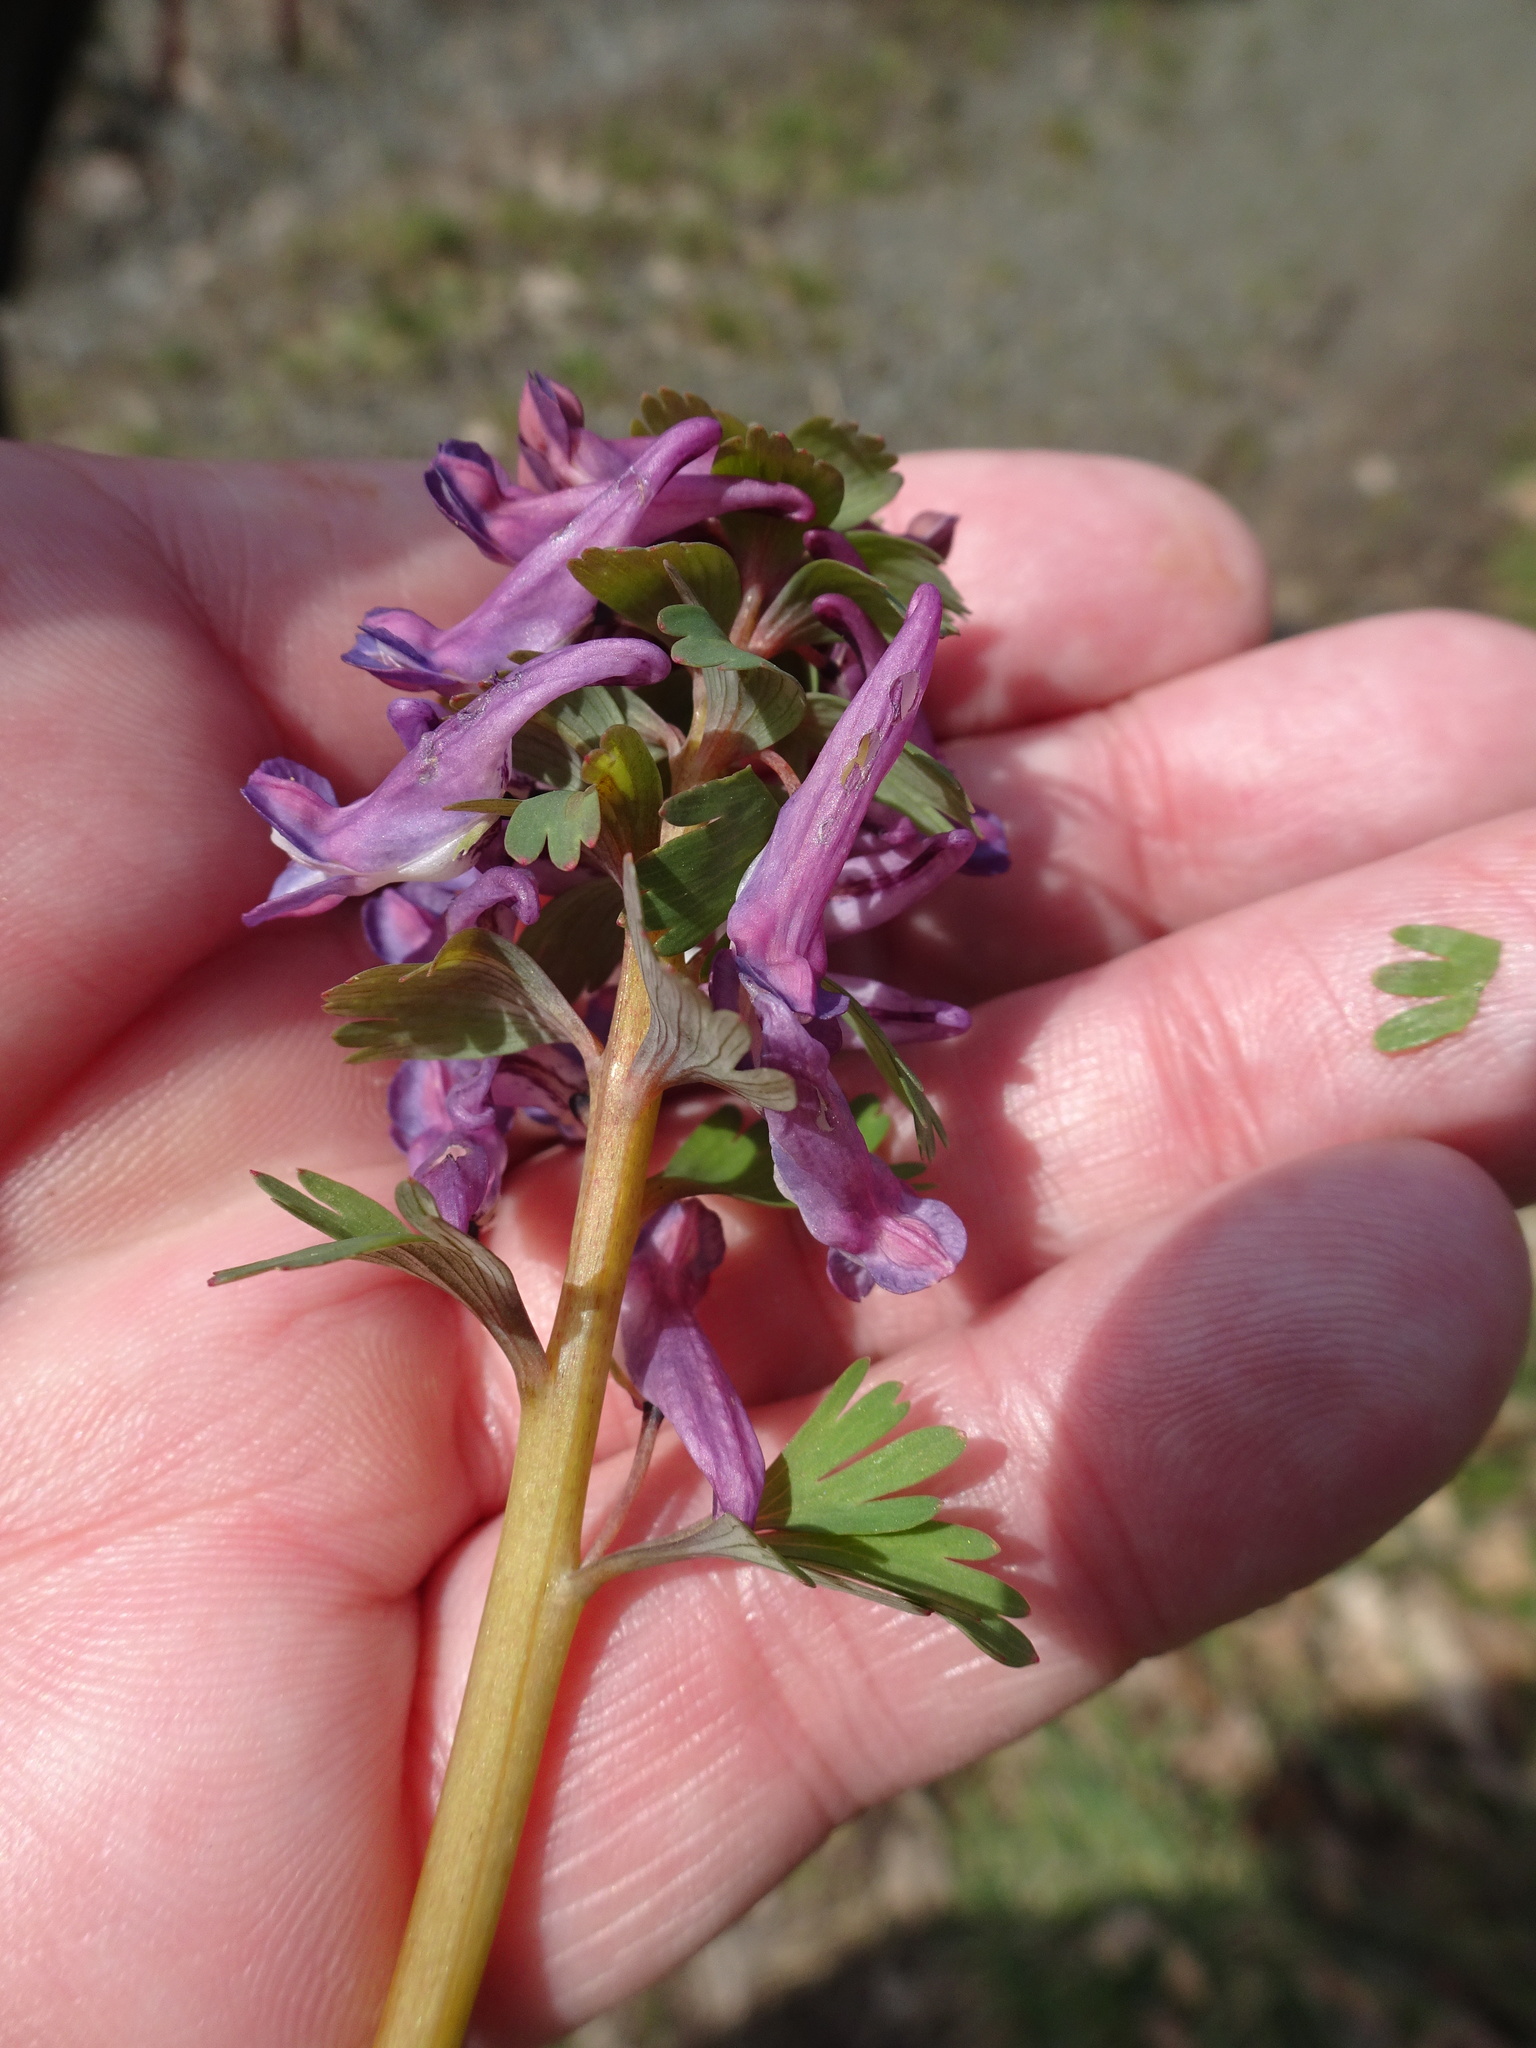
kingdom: Plantae
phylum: Tracheophyta
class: Magnoliopsida
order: Ranunculales
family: Papaveraceae
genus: Corydalis
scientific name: Corydalis solida
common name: Bird-in-a-bush
